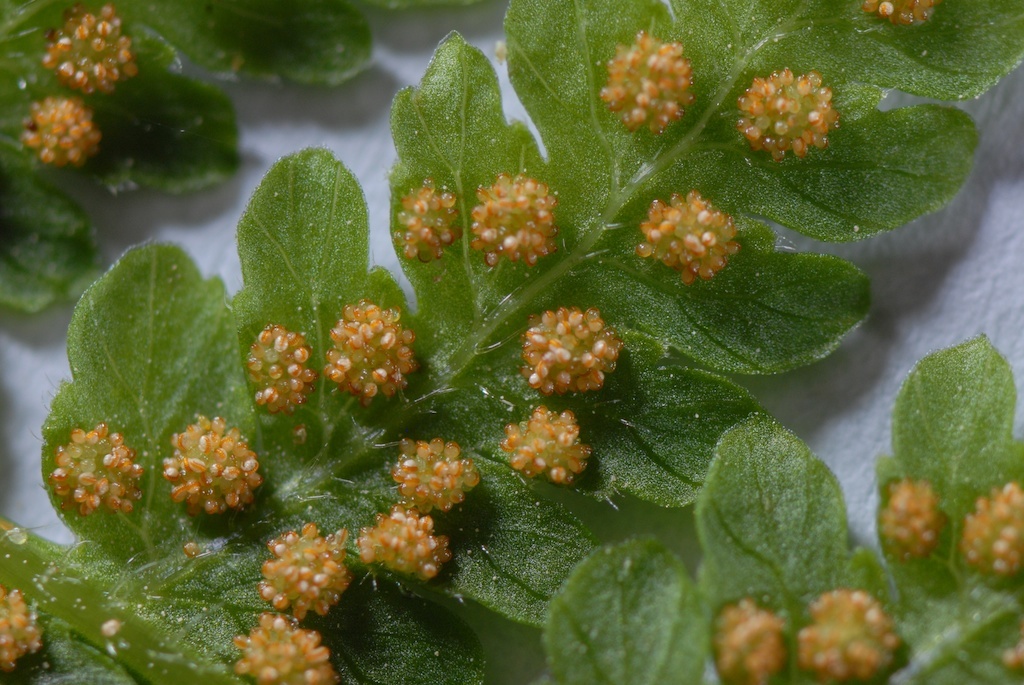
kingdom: Plantae
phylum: Tracheophyta
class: Polypodiopsida
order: Polypodiales
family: Dennstaedtiaceae
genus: Hypolepis
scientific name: Hypolepis ambigua
